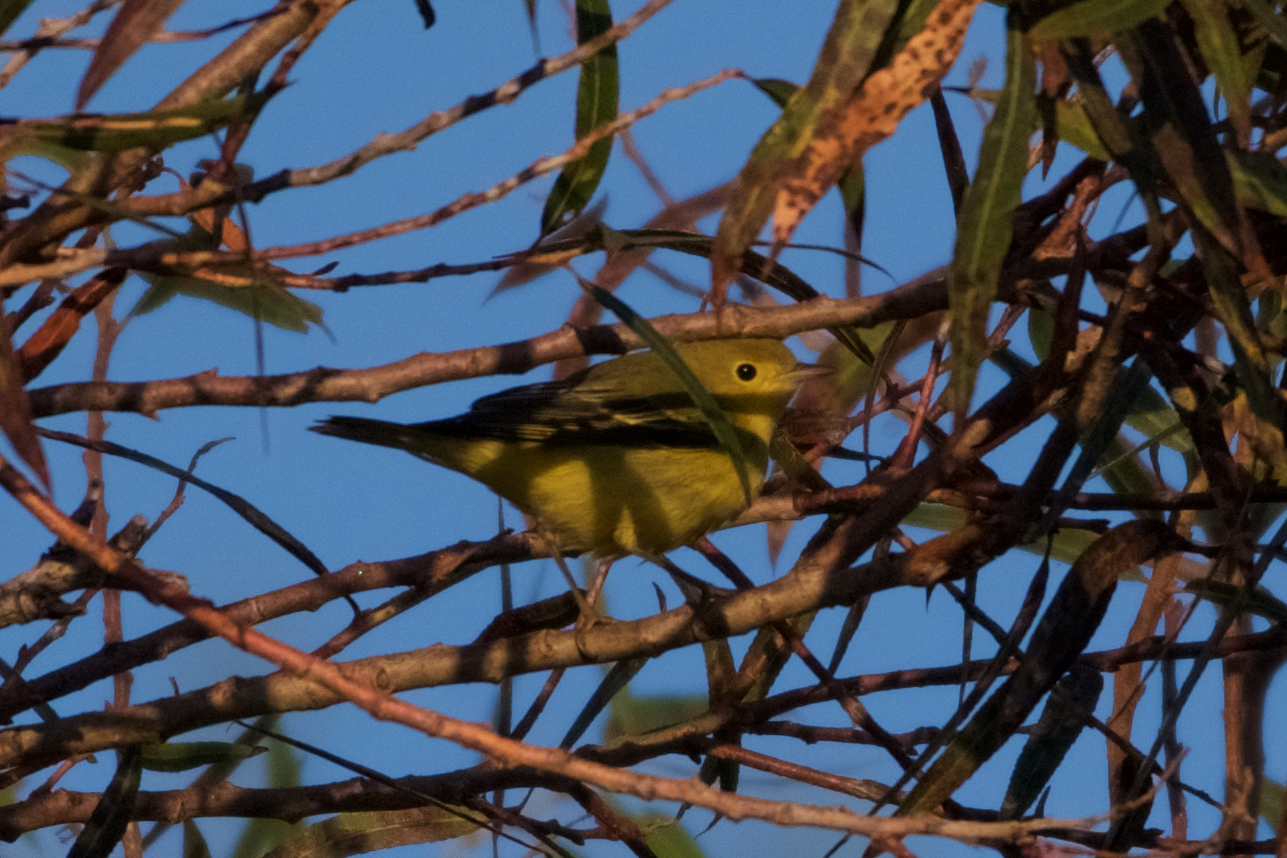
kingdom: Animalia
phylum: Chordata
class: Aves
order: Passeriformes
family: Parulidae
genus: Setophaga
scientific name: Setophaga petechia
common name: Yellow warbler
